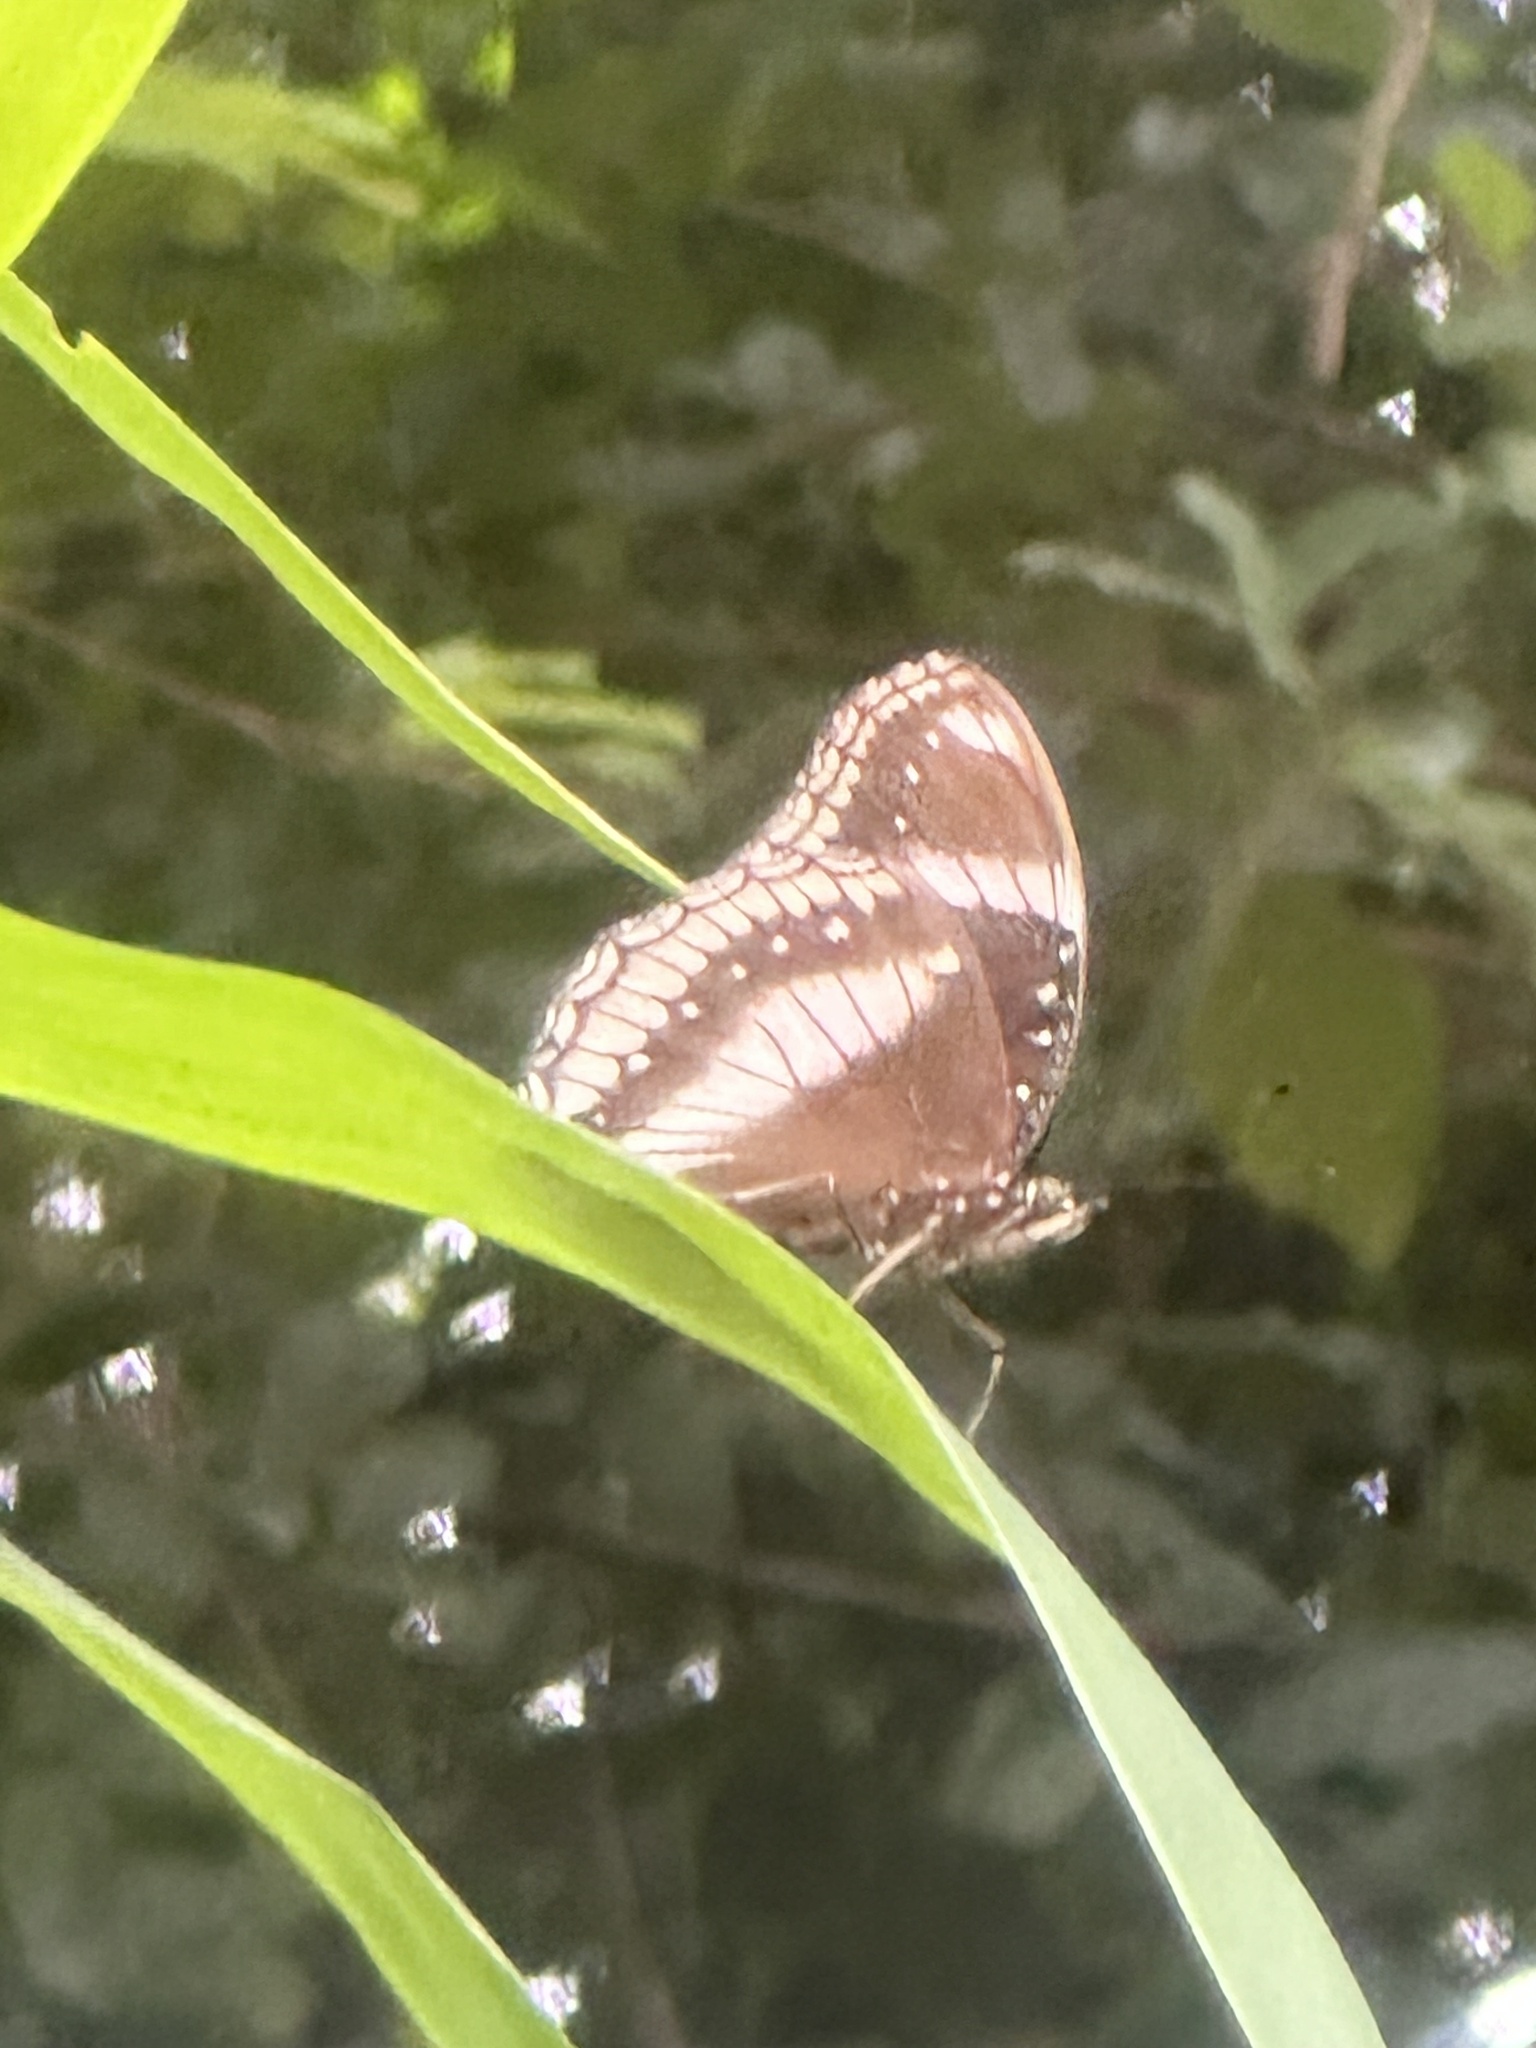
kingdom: Animalia
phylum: Arthropoda
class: Insecta
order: Lepidoptera
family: Nymphalidae
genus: Hypolimnas
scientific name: Hypolimnas bolina
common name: Great eggfly
